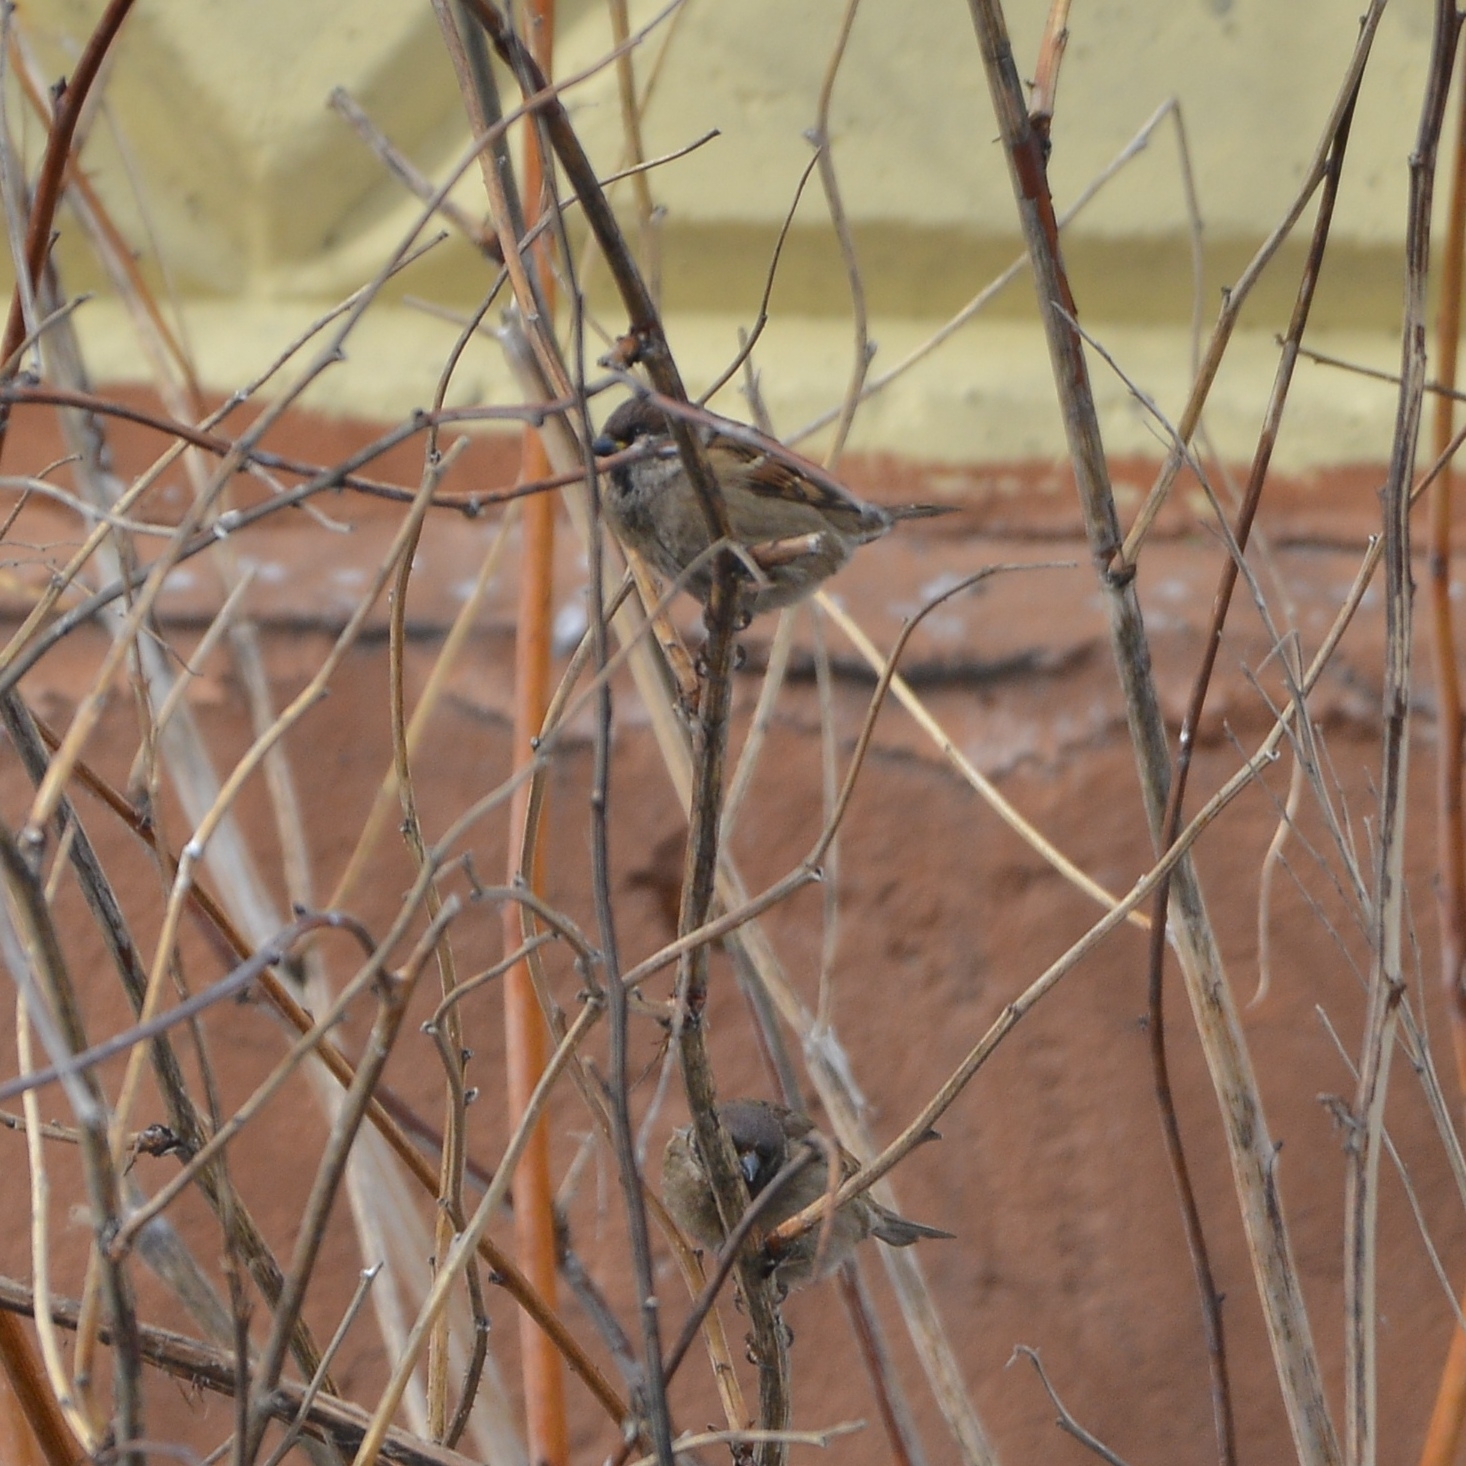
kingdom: Animalia
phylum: Chordata
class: Aves
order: Passeriformes
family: Passeridae
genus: Passer
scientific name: Passer montanus
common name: Eurasian tree sparrow
